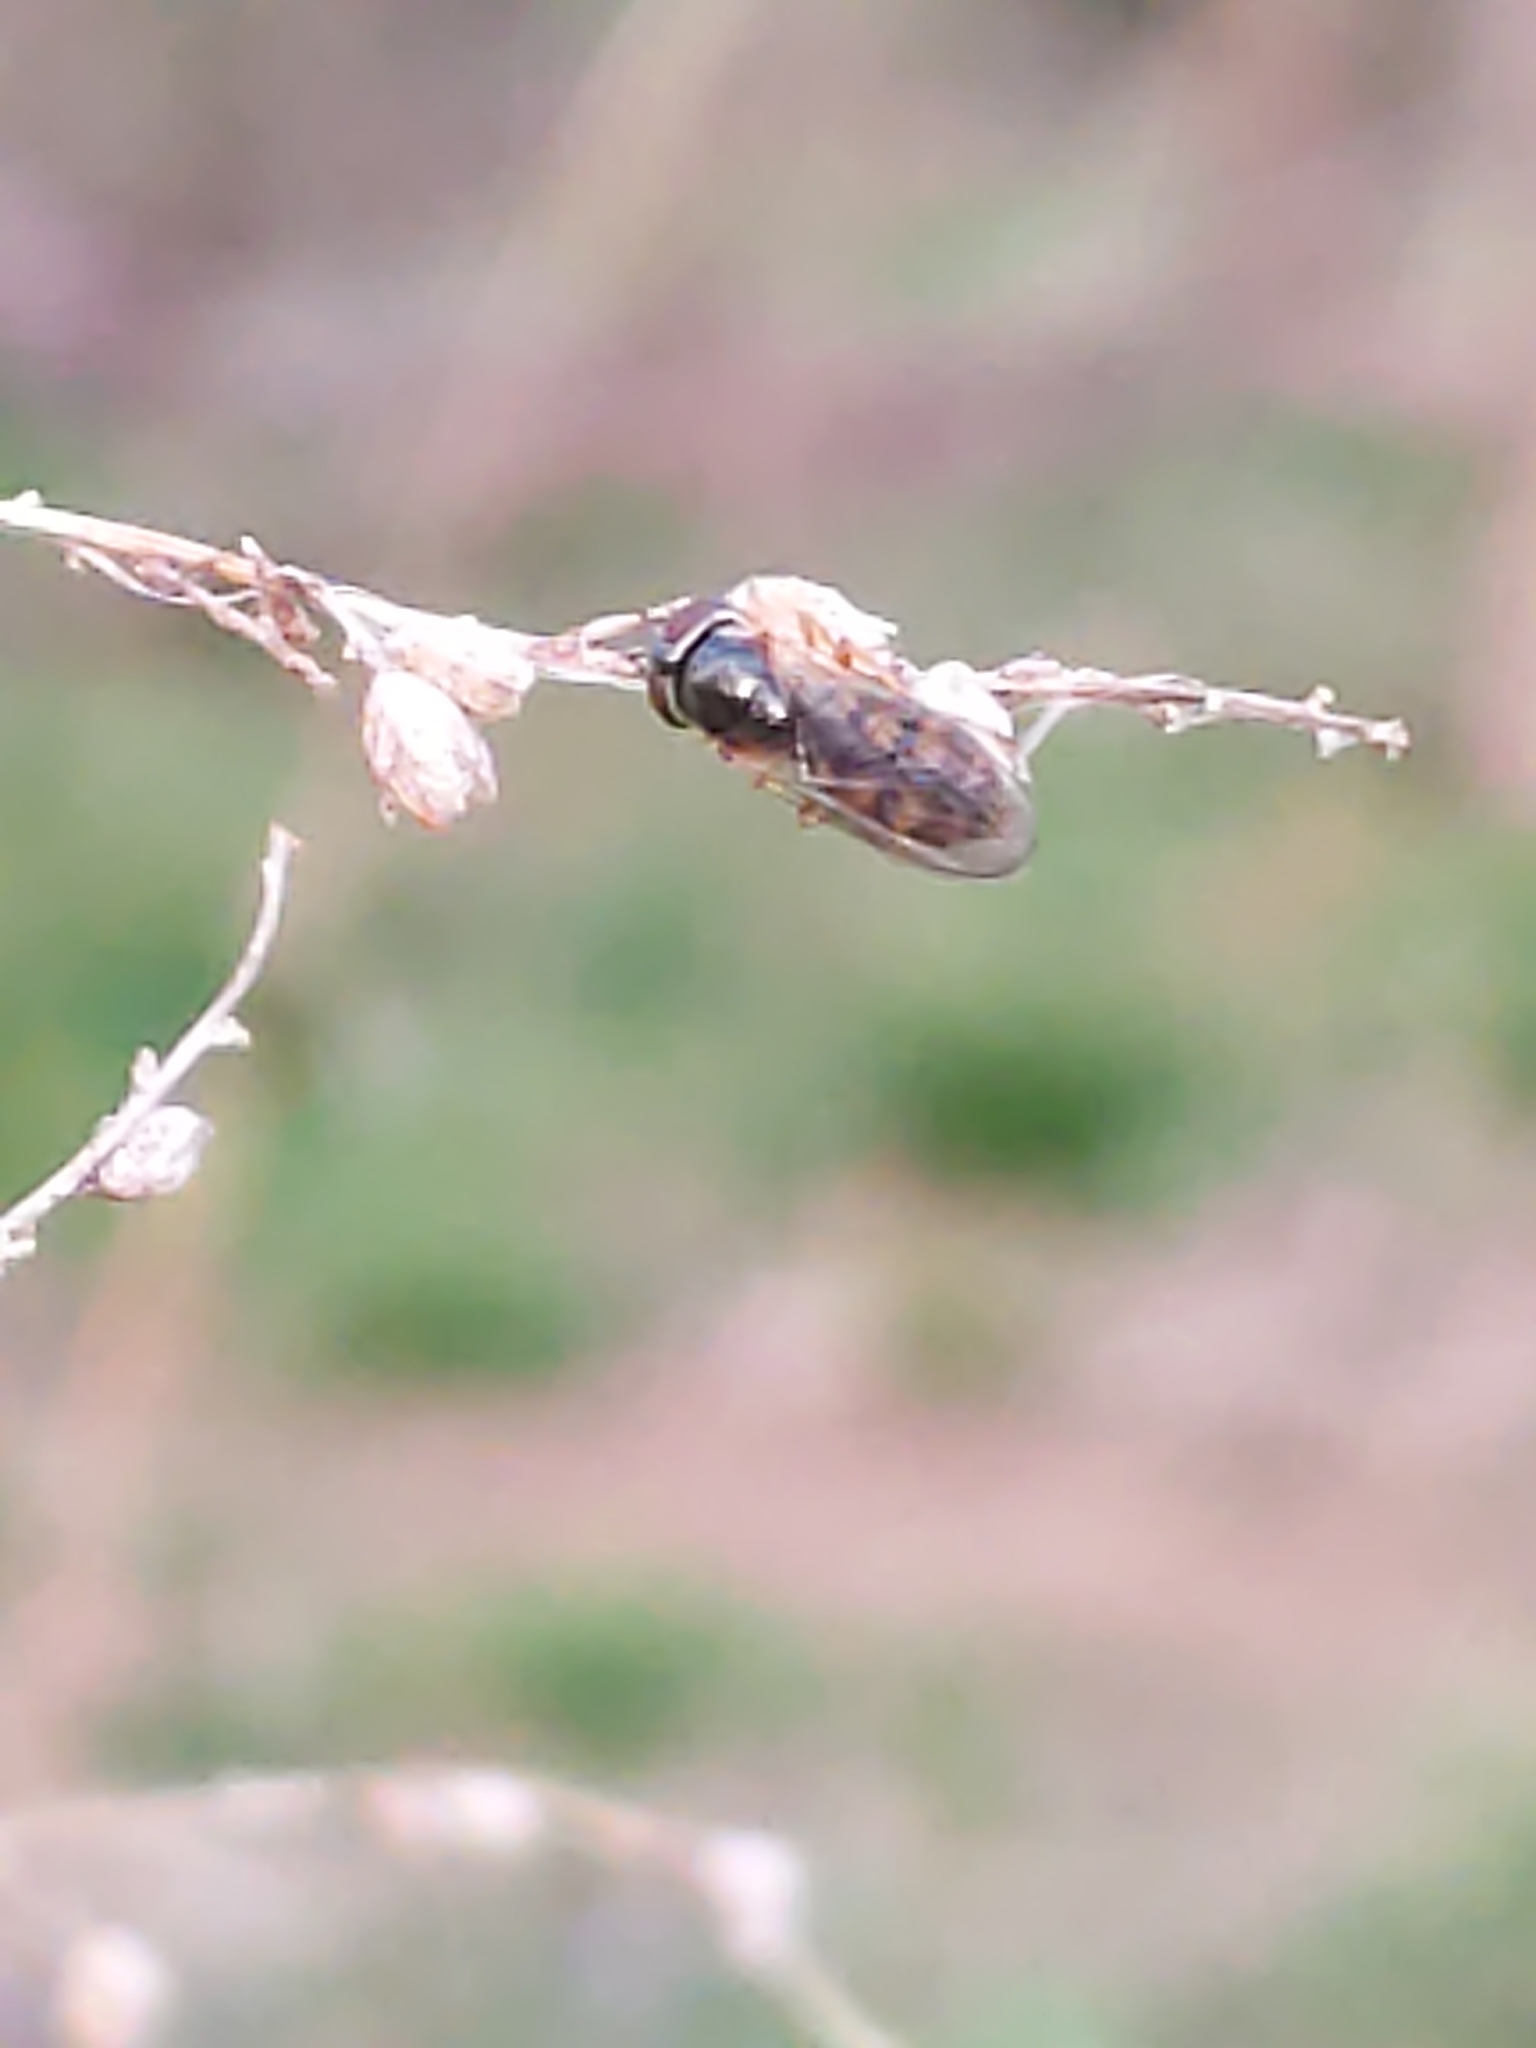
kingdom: Animalia
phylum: Arthropoda
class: Insecta
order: Diptera
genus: Bacchina
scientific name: Bacchina
